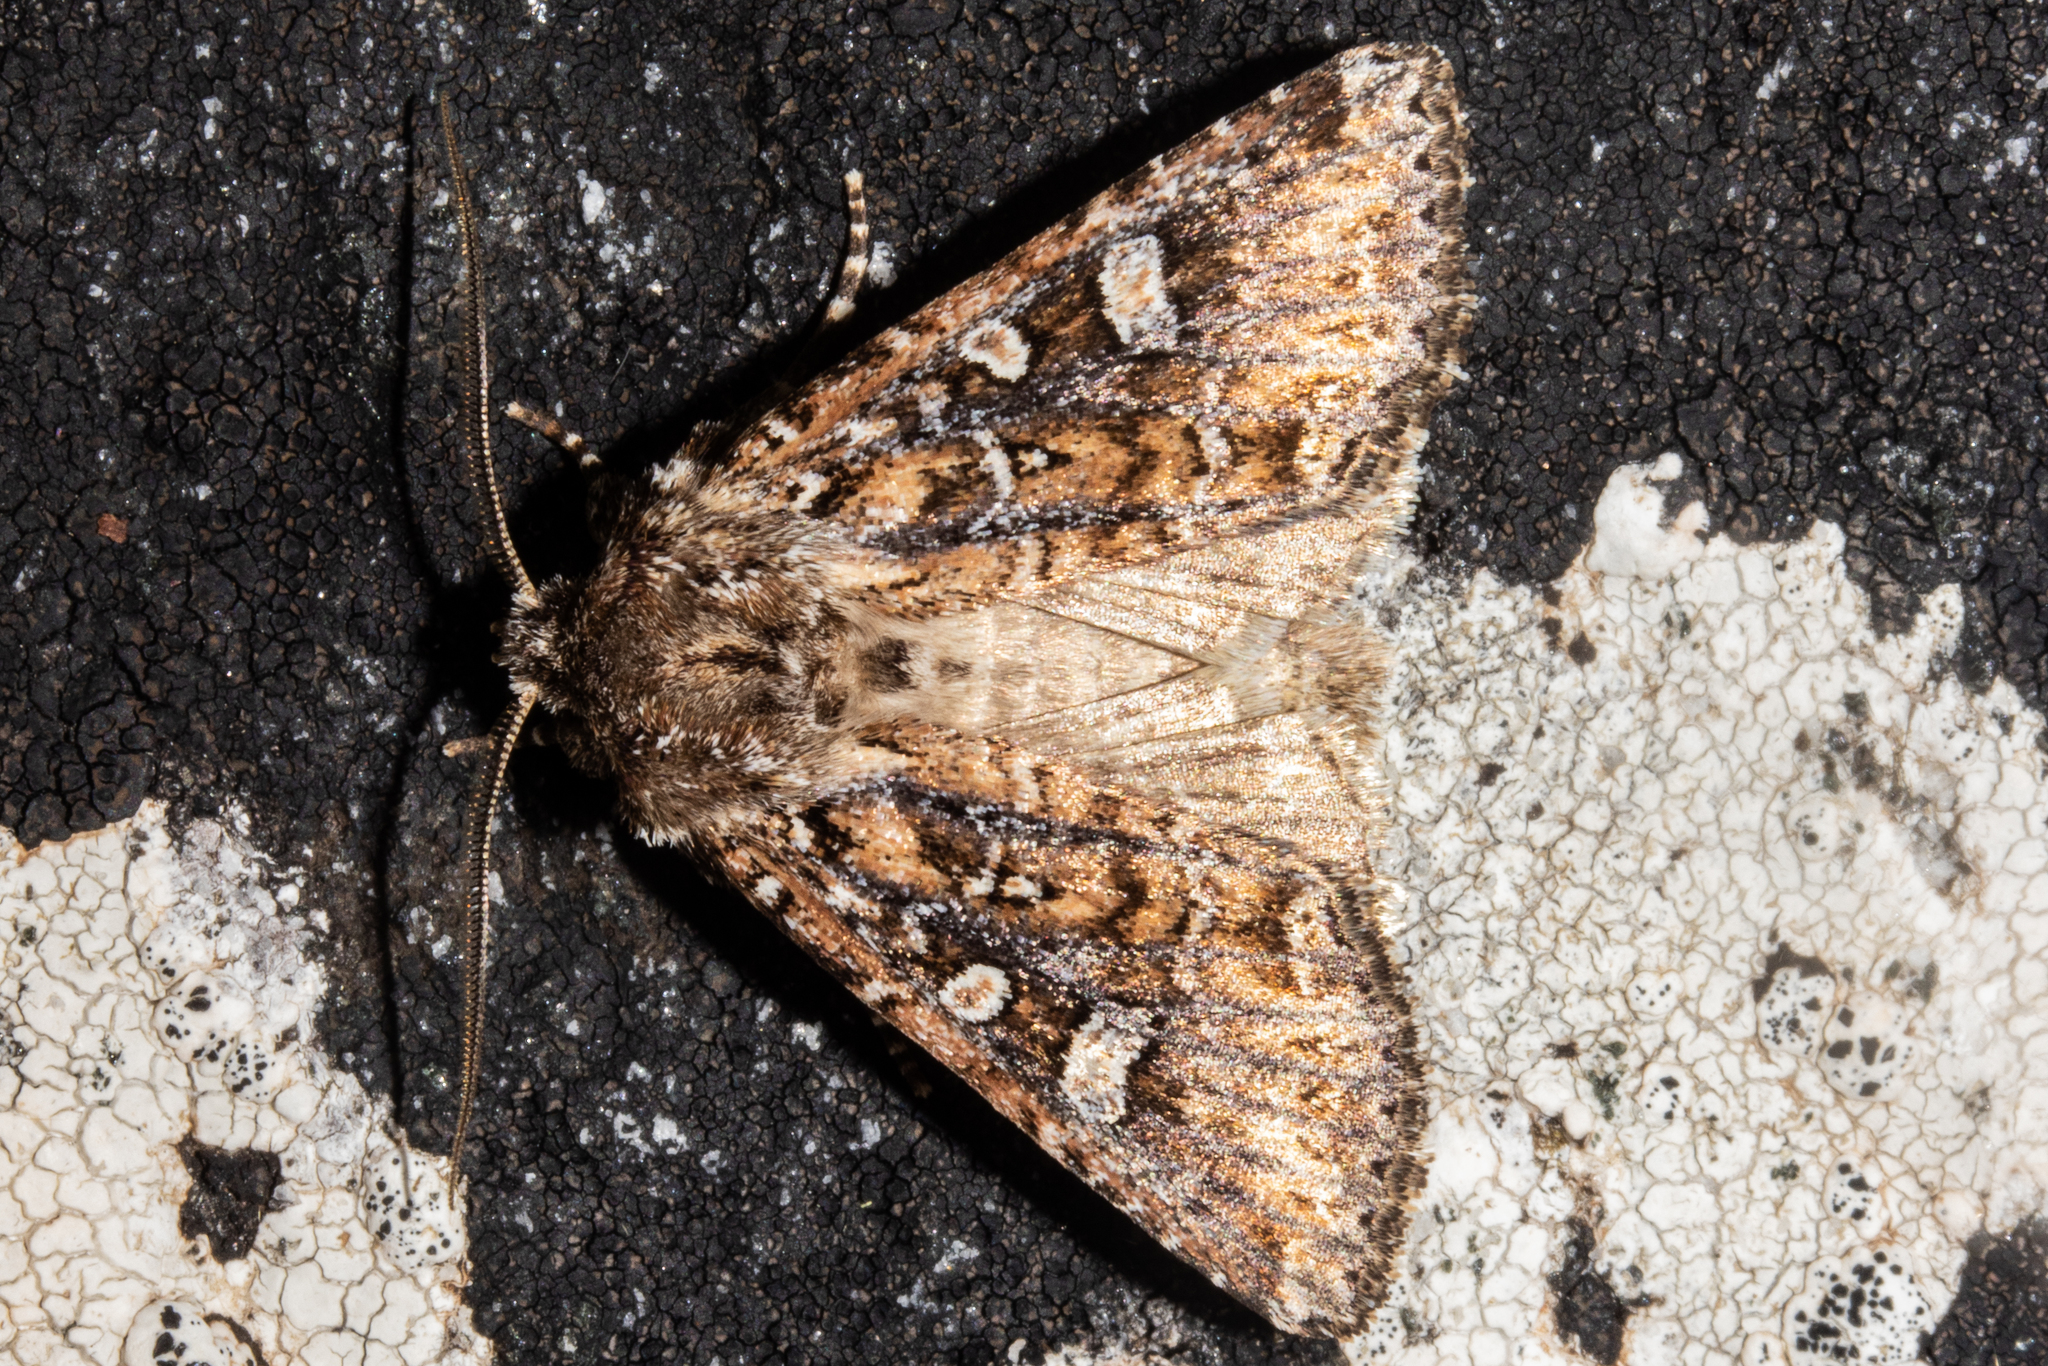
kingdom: Animalia
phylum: Arthropoda
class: Insecta
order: Lepidoptera
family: Noctuidae
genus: Ichneutica
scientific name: Ichneutica lithias
